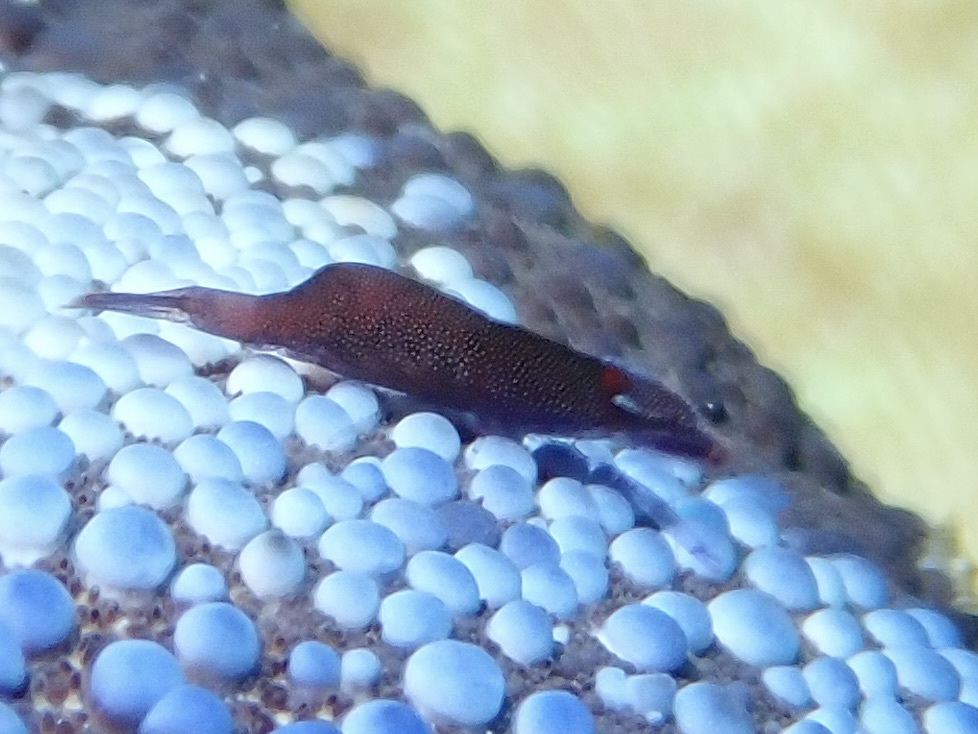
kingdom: Animalia
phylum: Arthropoda
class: Malacostraca
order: Decapoda
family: Palaemonidae
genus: Periclimenes
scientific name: Periclimenes soror
